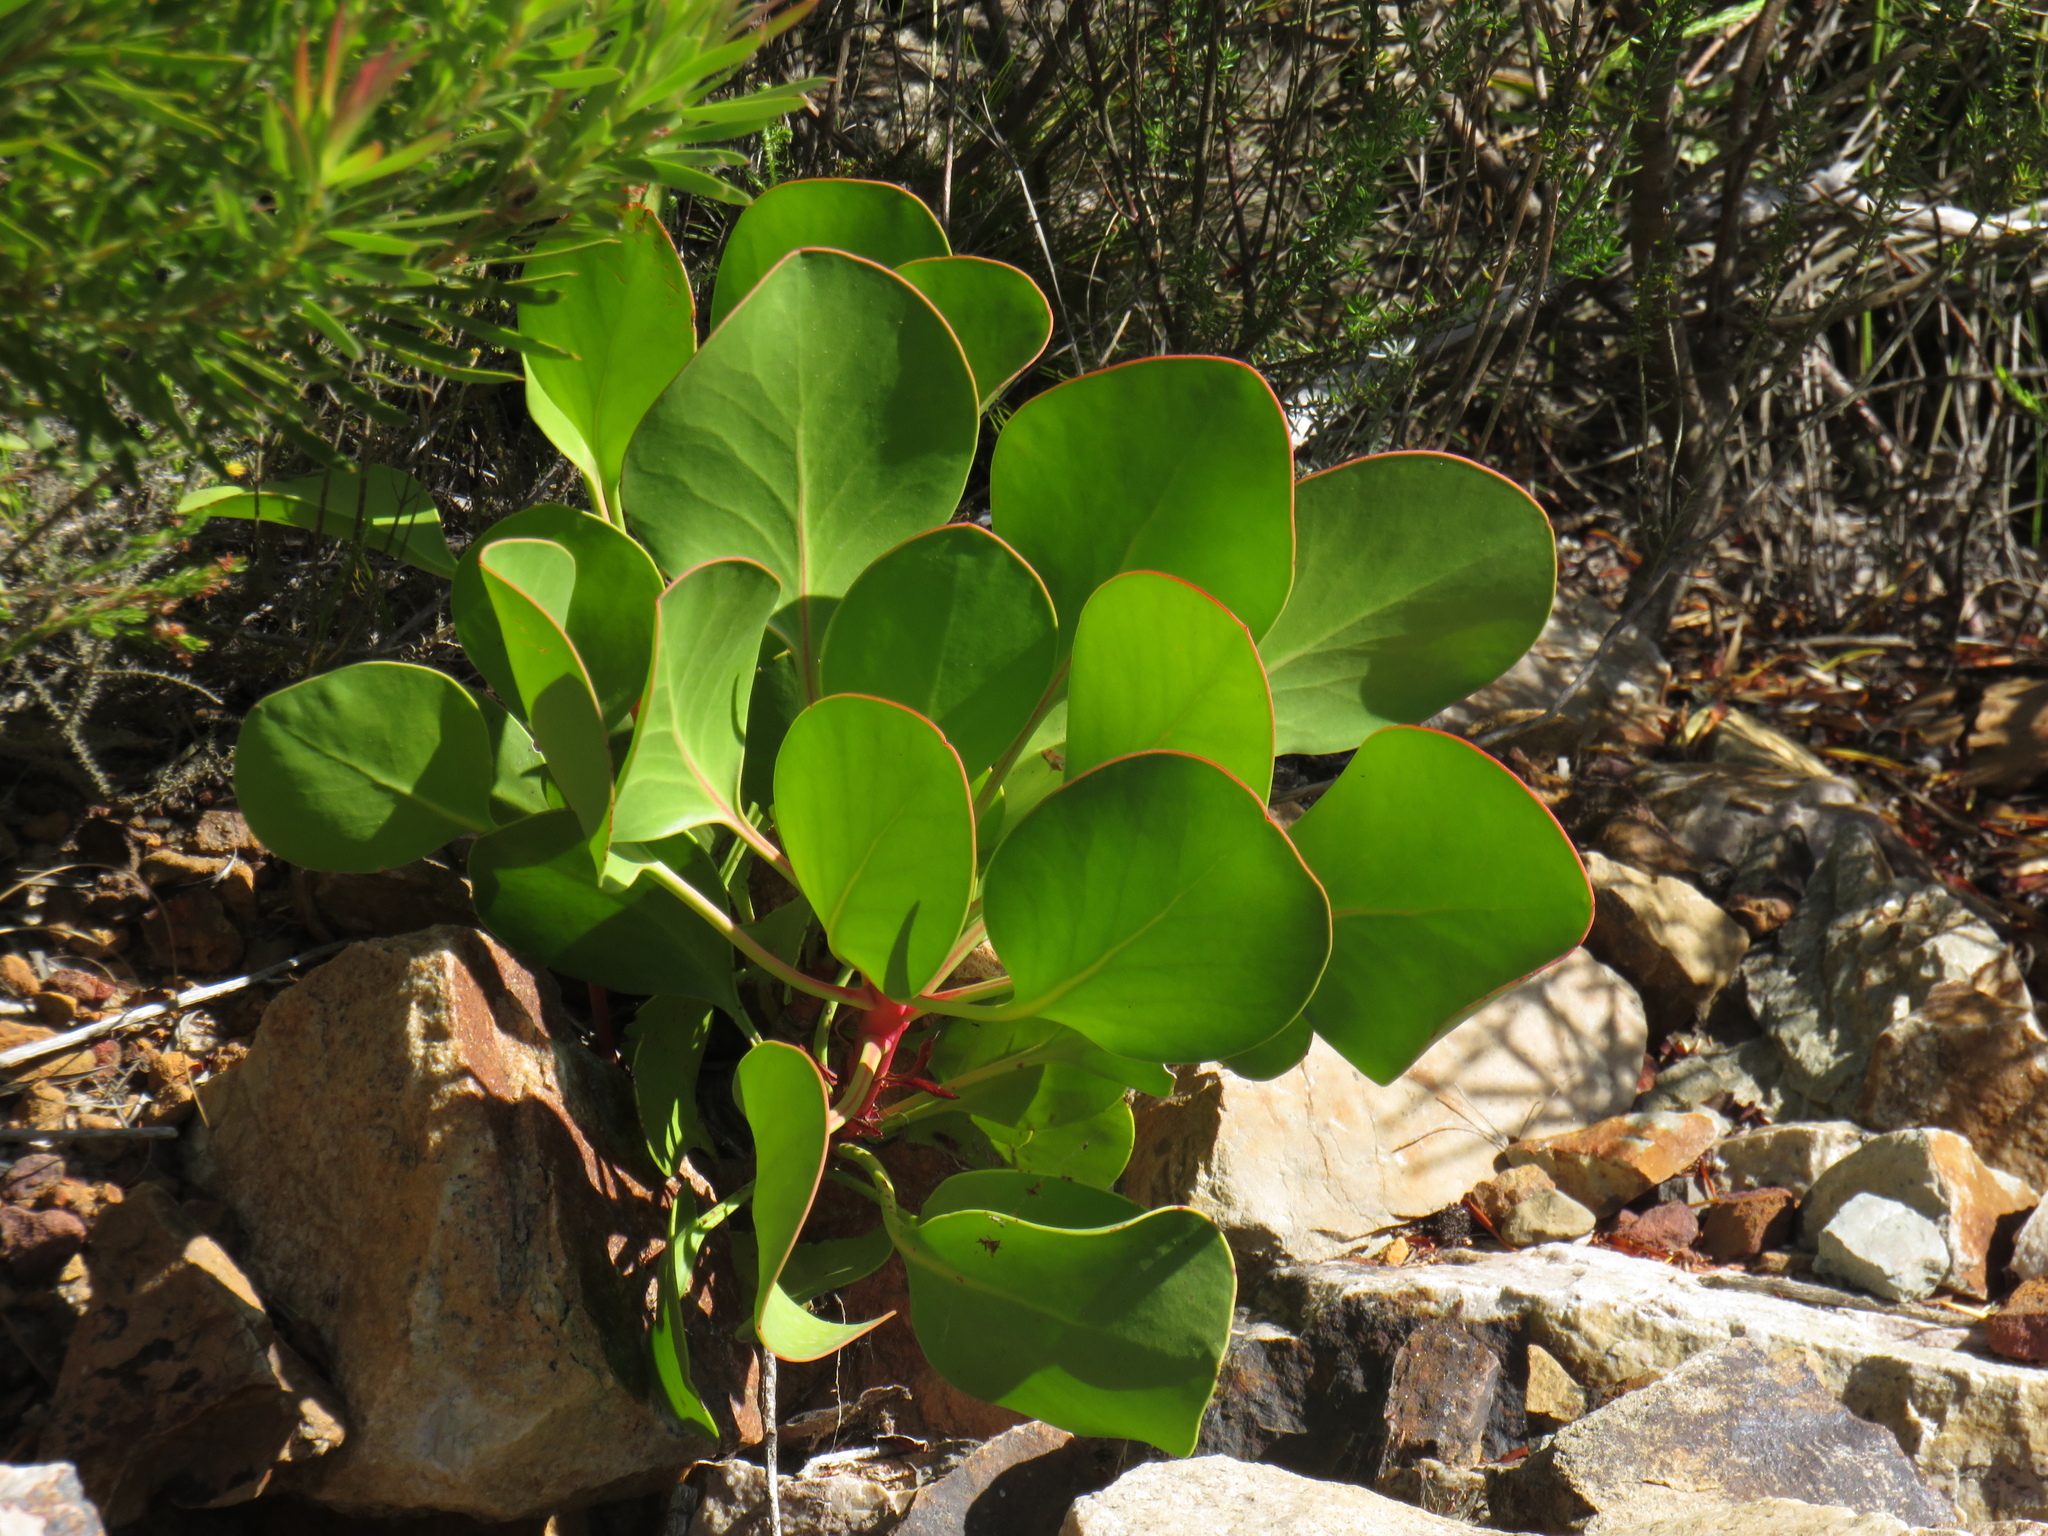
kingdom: Plantae
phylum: Tracheophyta
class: Magnoliopsida
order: Proteales
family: Proteaceae
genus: Protea
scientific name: Protea cynaroides
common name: King protea
